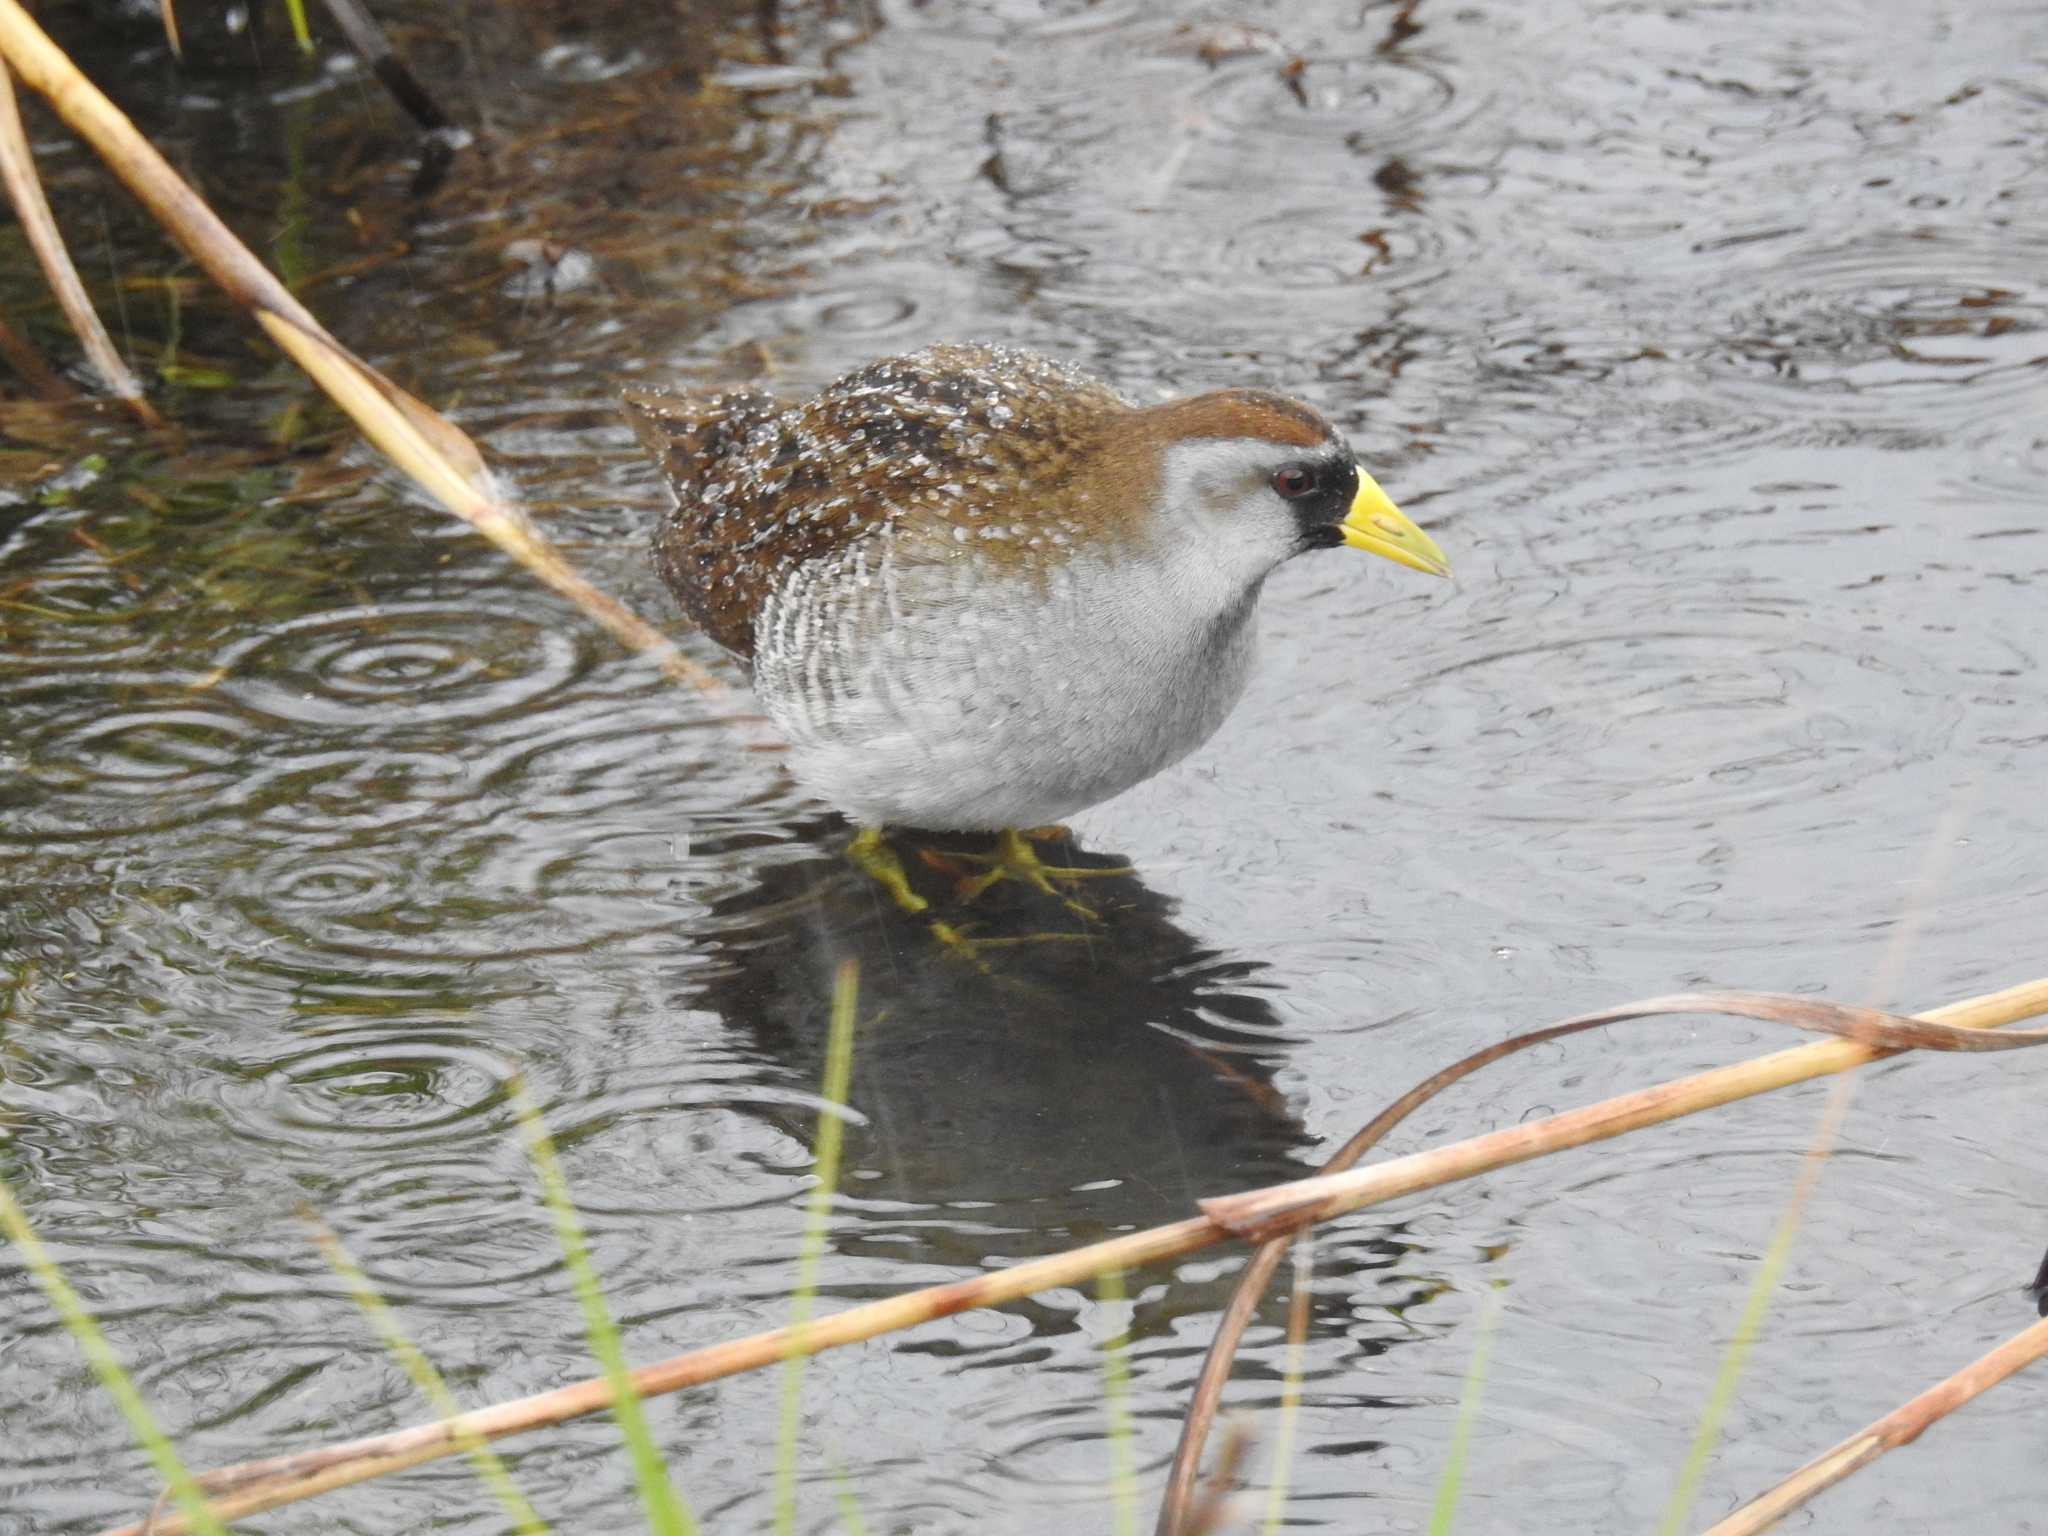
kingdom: Animalia
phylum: Chordata
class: Aves
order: Gruiformes
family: Rallidae
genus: Porzana
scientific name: Porzana carolina
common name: Sora
